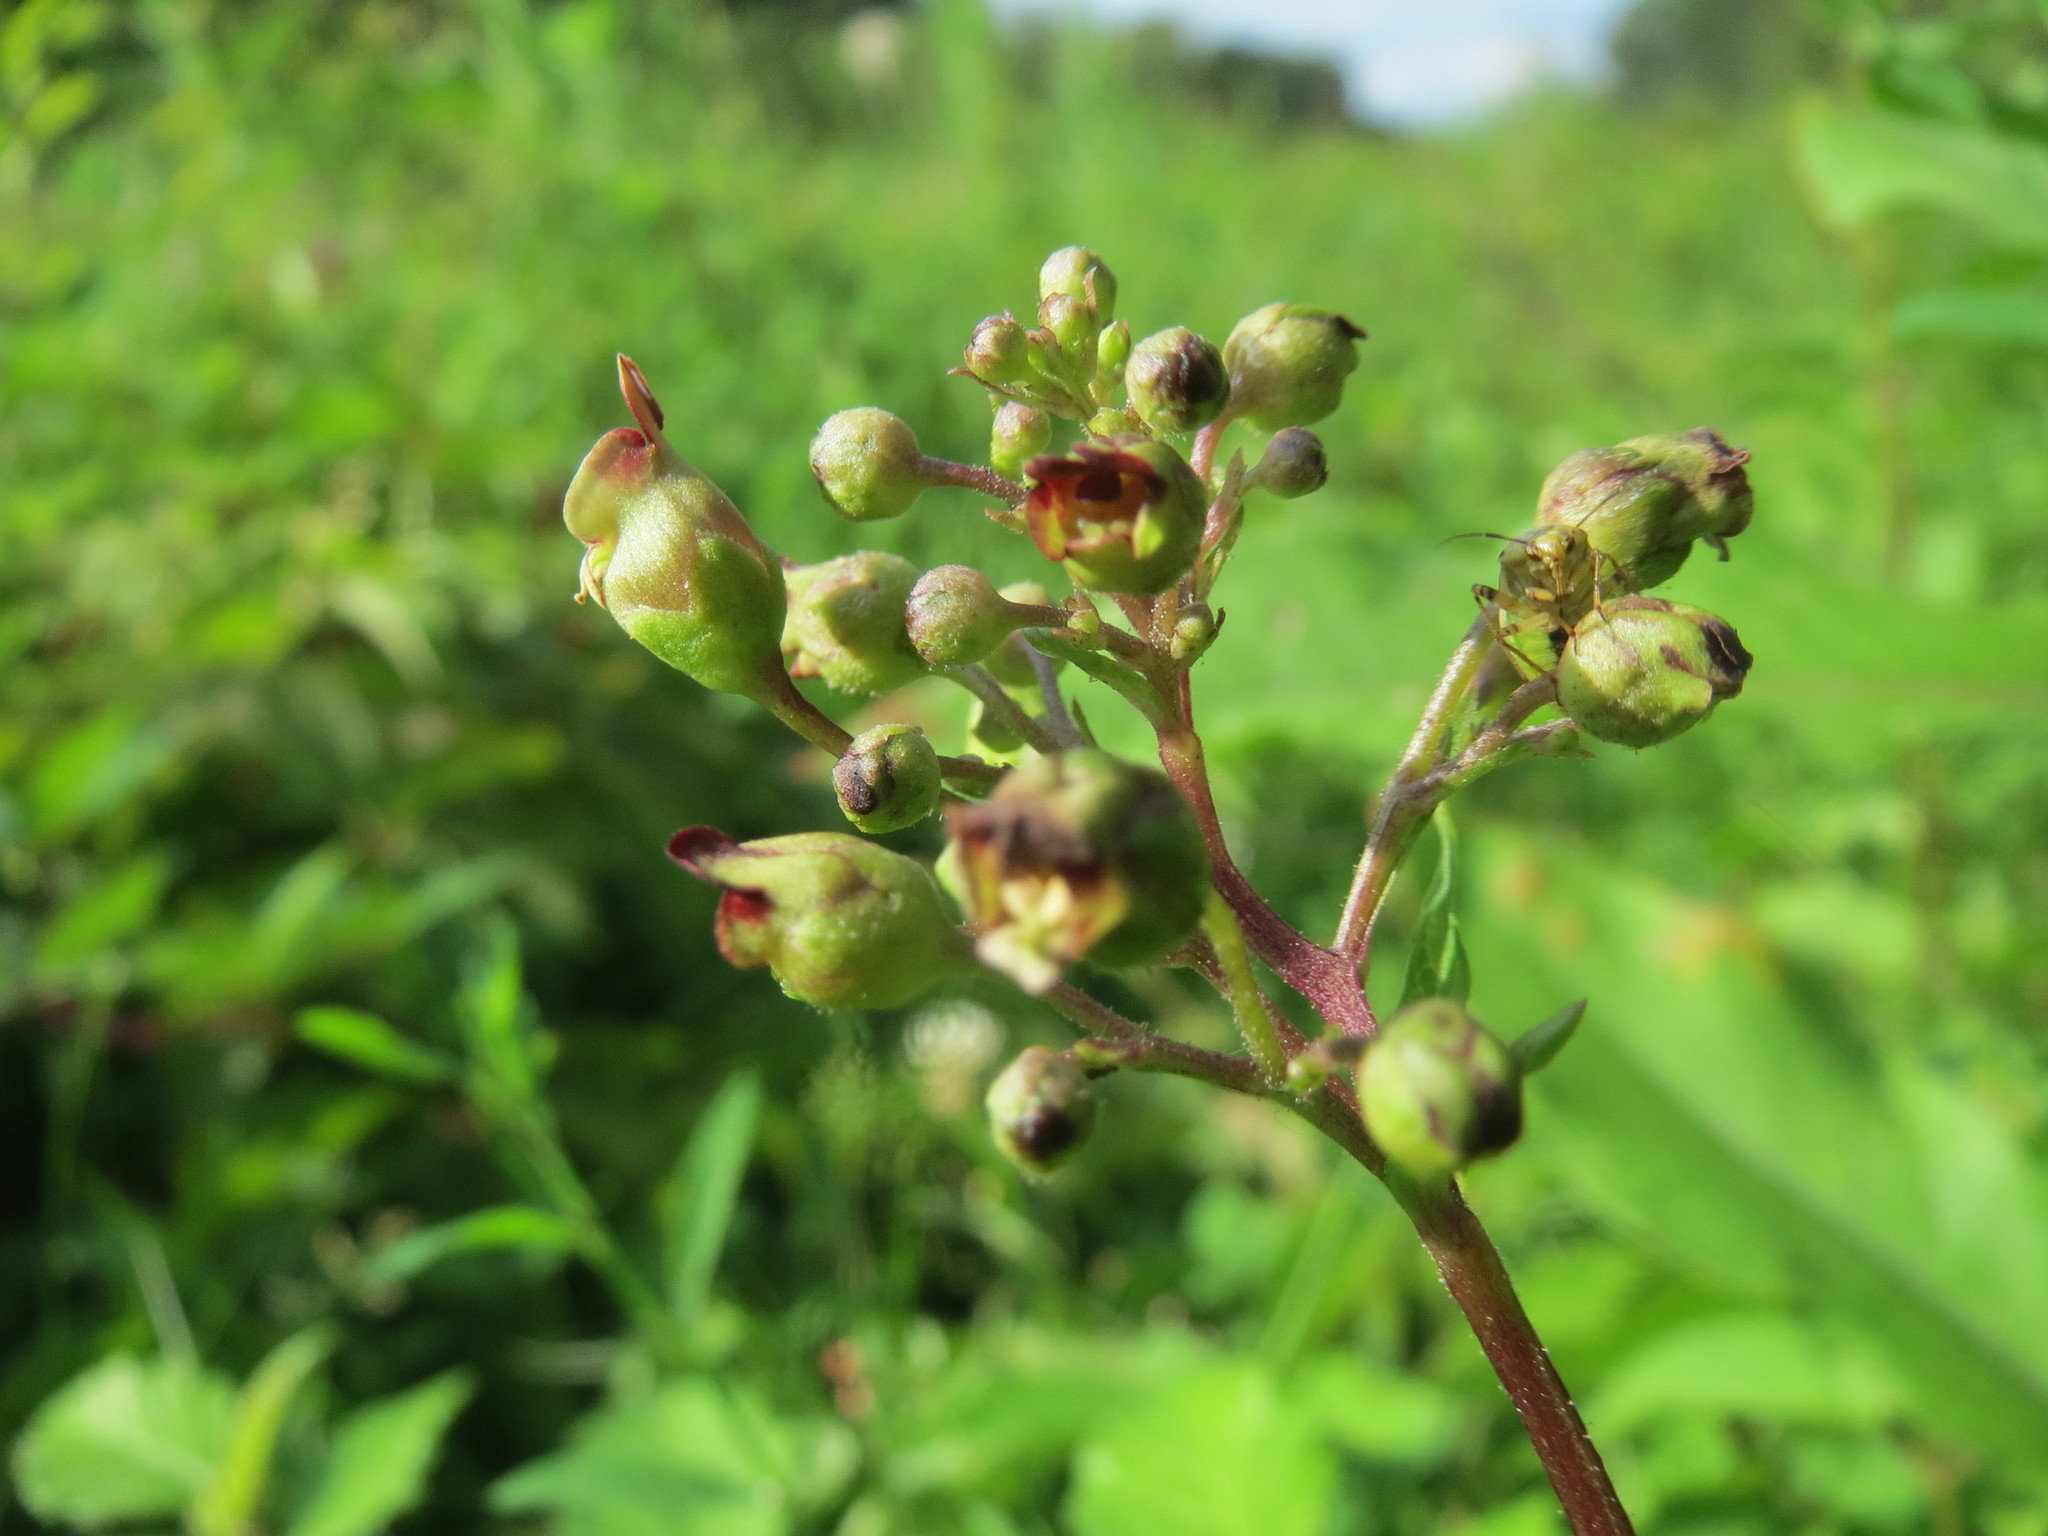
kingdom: Plantae
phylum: Tracheophyta
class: Magnoliopsida
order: Lamiales
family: Scrophulariaceae
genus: Scrophularia
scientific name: Scrophularia nodosa
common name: Common figwort
